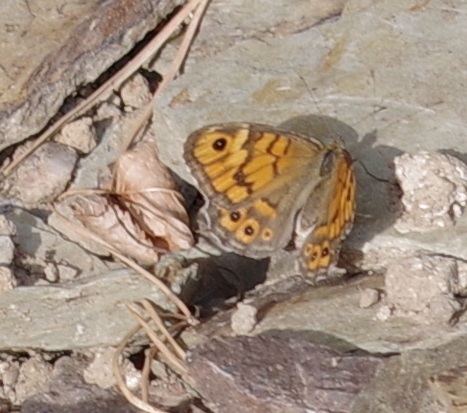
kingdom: Animalia
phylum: Arthropoda
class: Insecta
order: Lepidoptera
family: Nymphalidae
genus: Pararge
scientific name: Pararge Lasiommata megera
